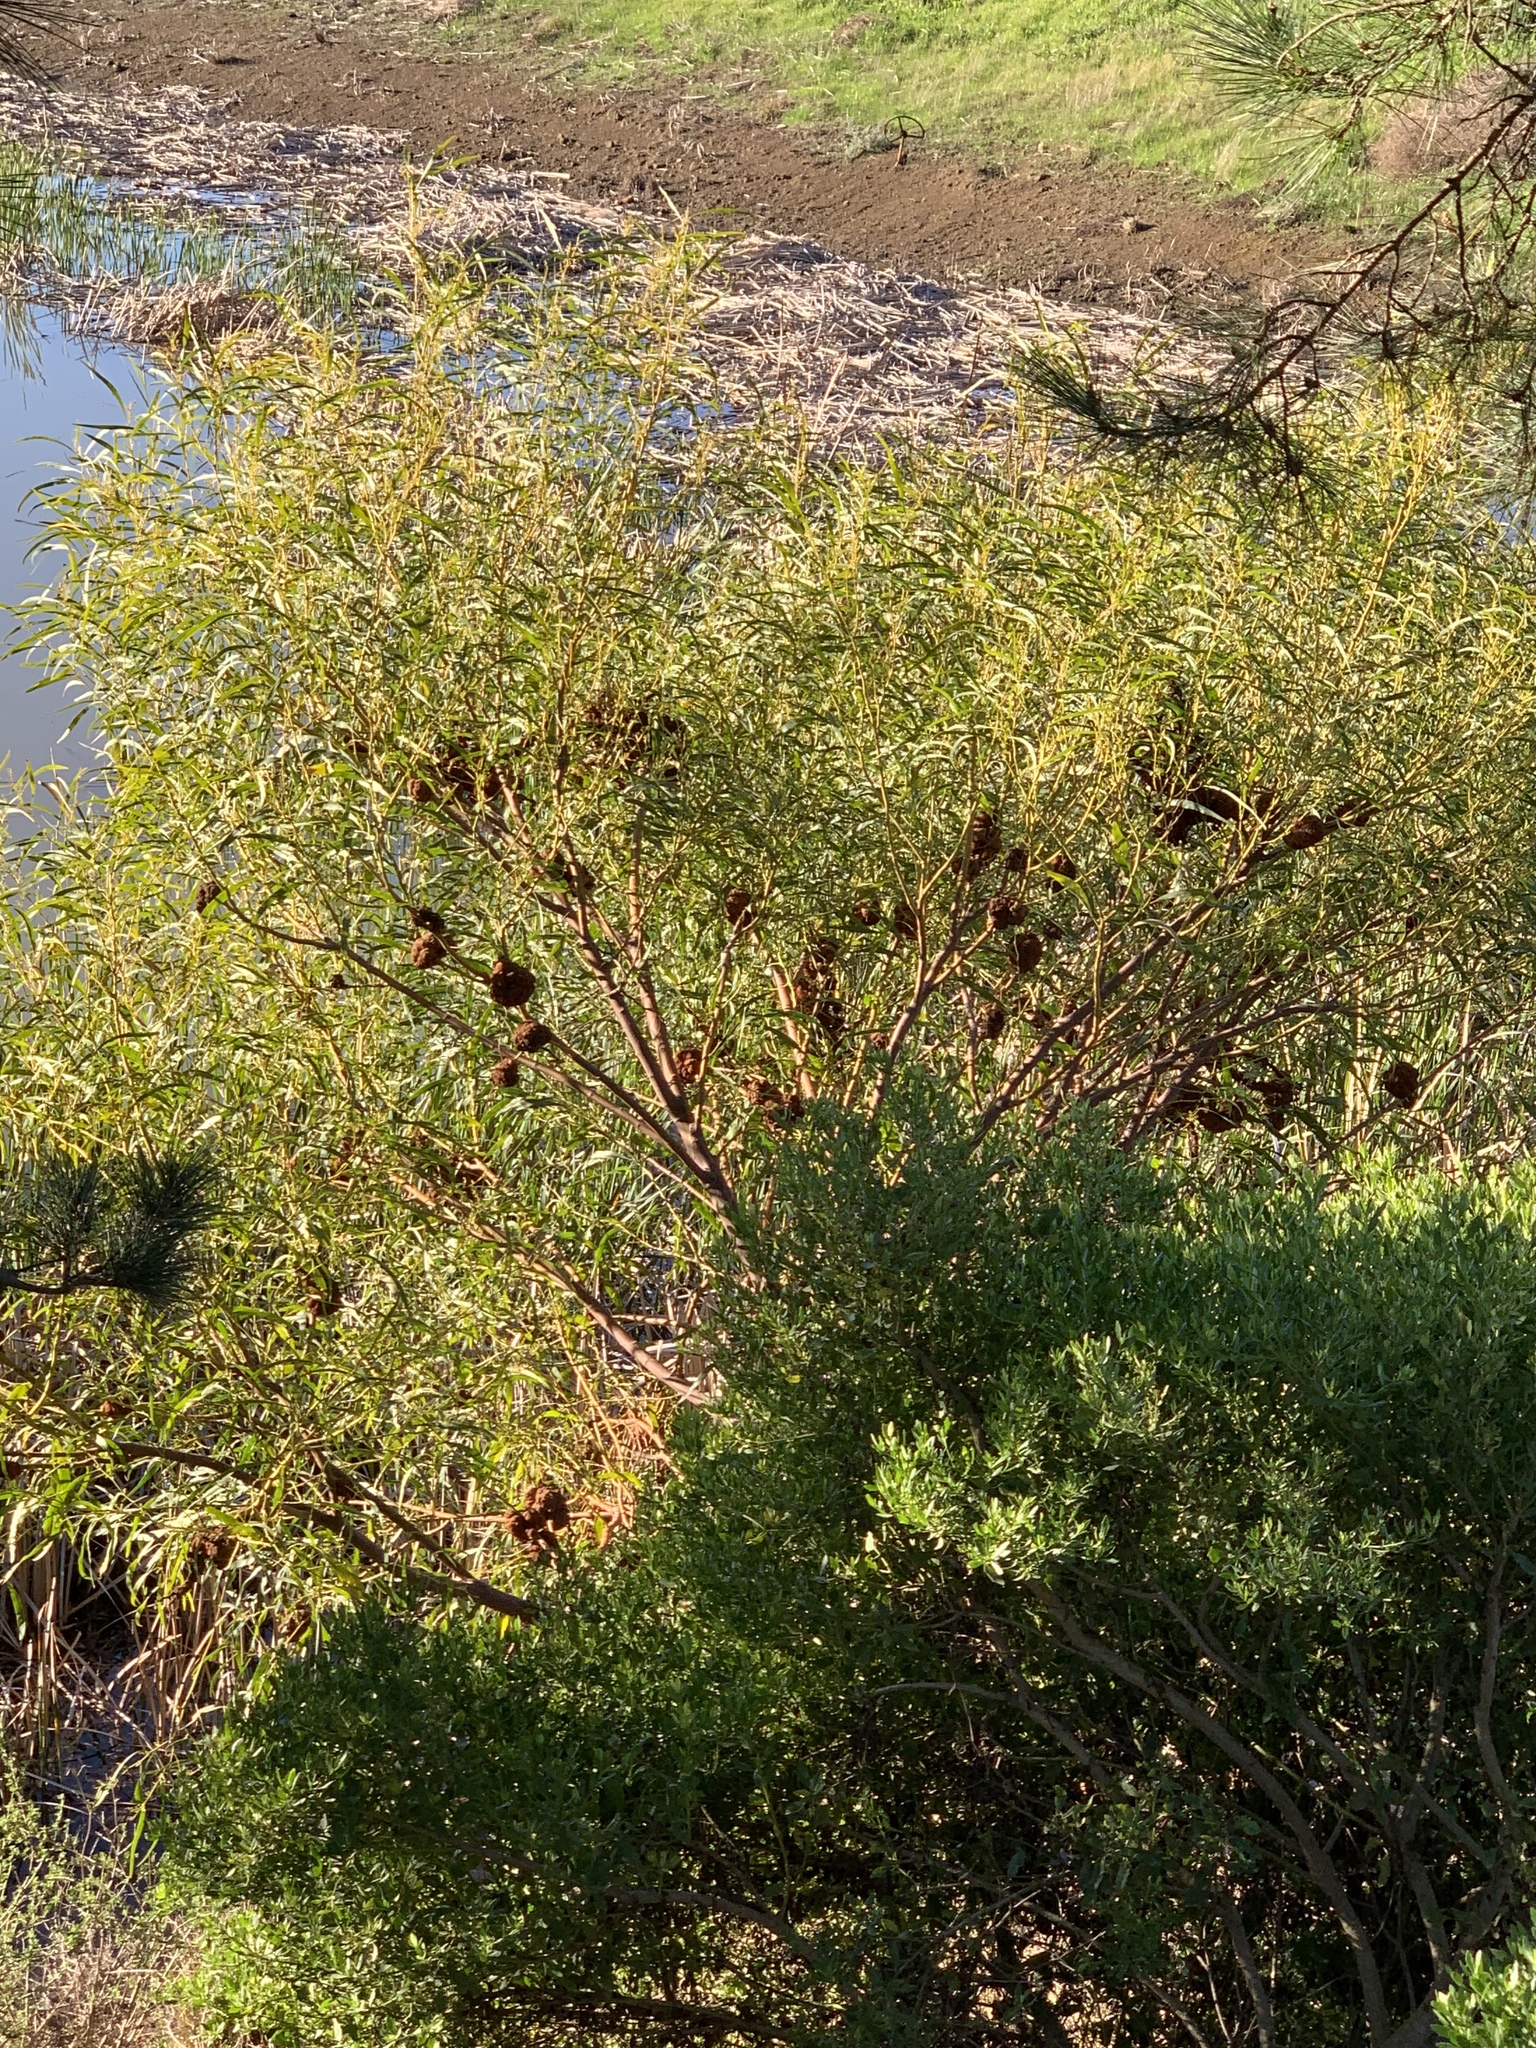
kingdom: Plantae
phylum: Tracheophyta
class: Magnoliopsida
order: Fabales
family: Fabaceae
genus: Acacia
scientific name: Acacia saligna
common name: Orange wattle
